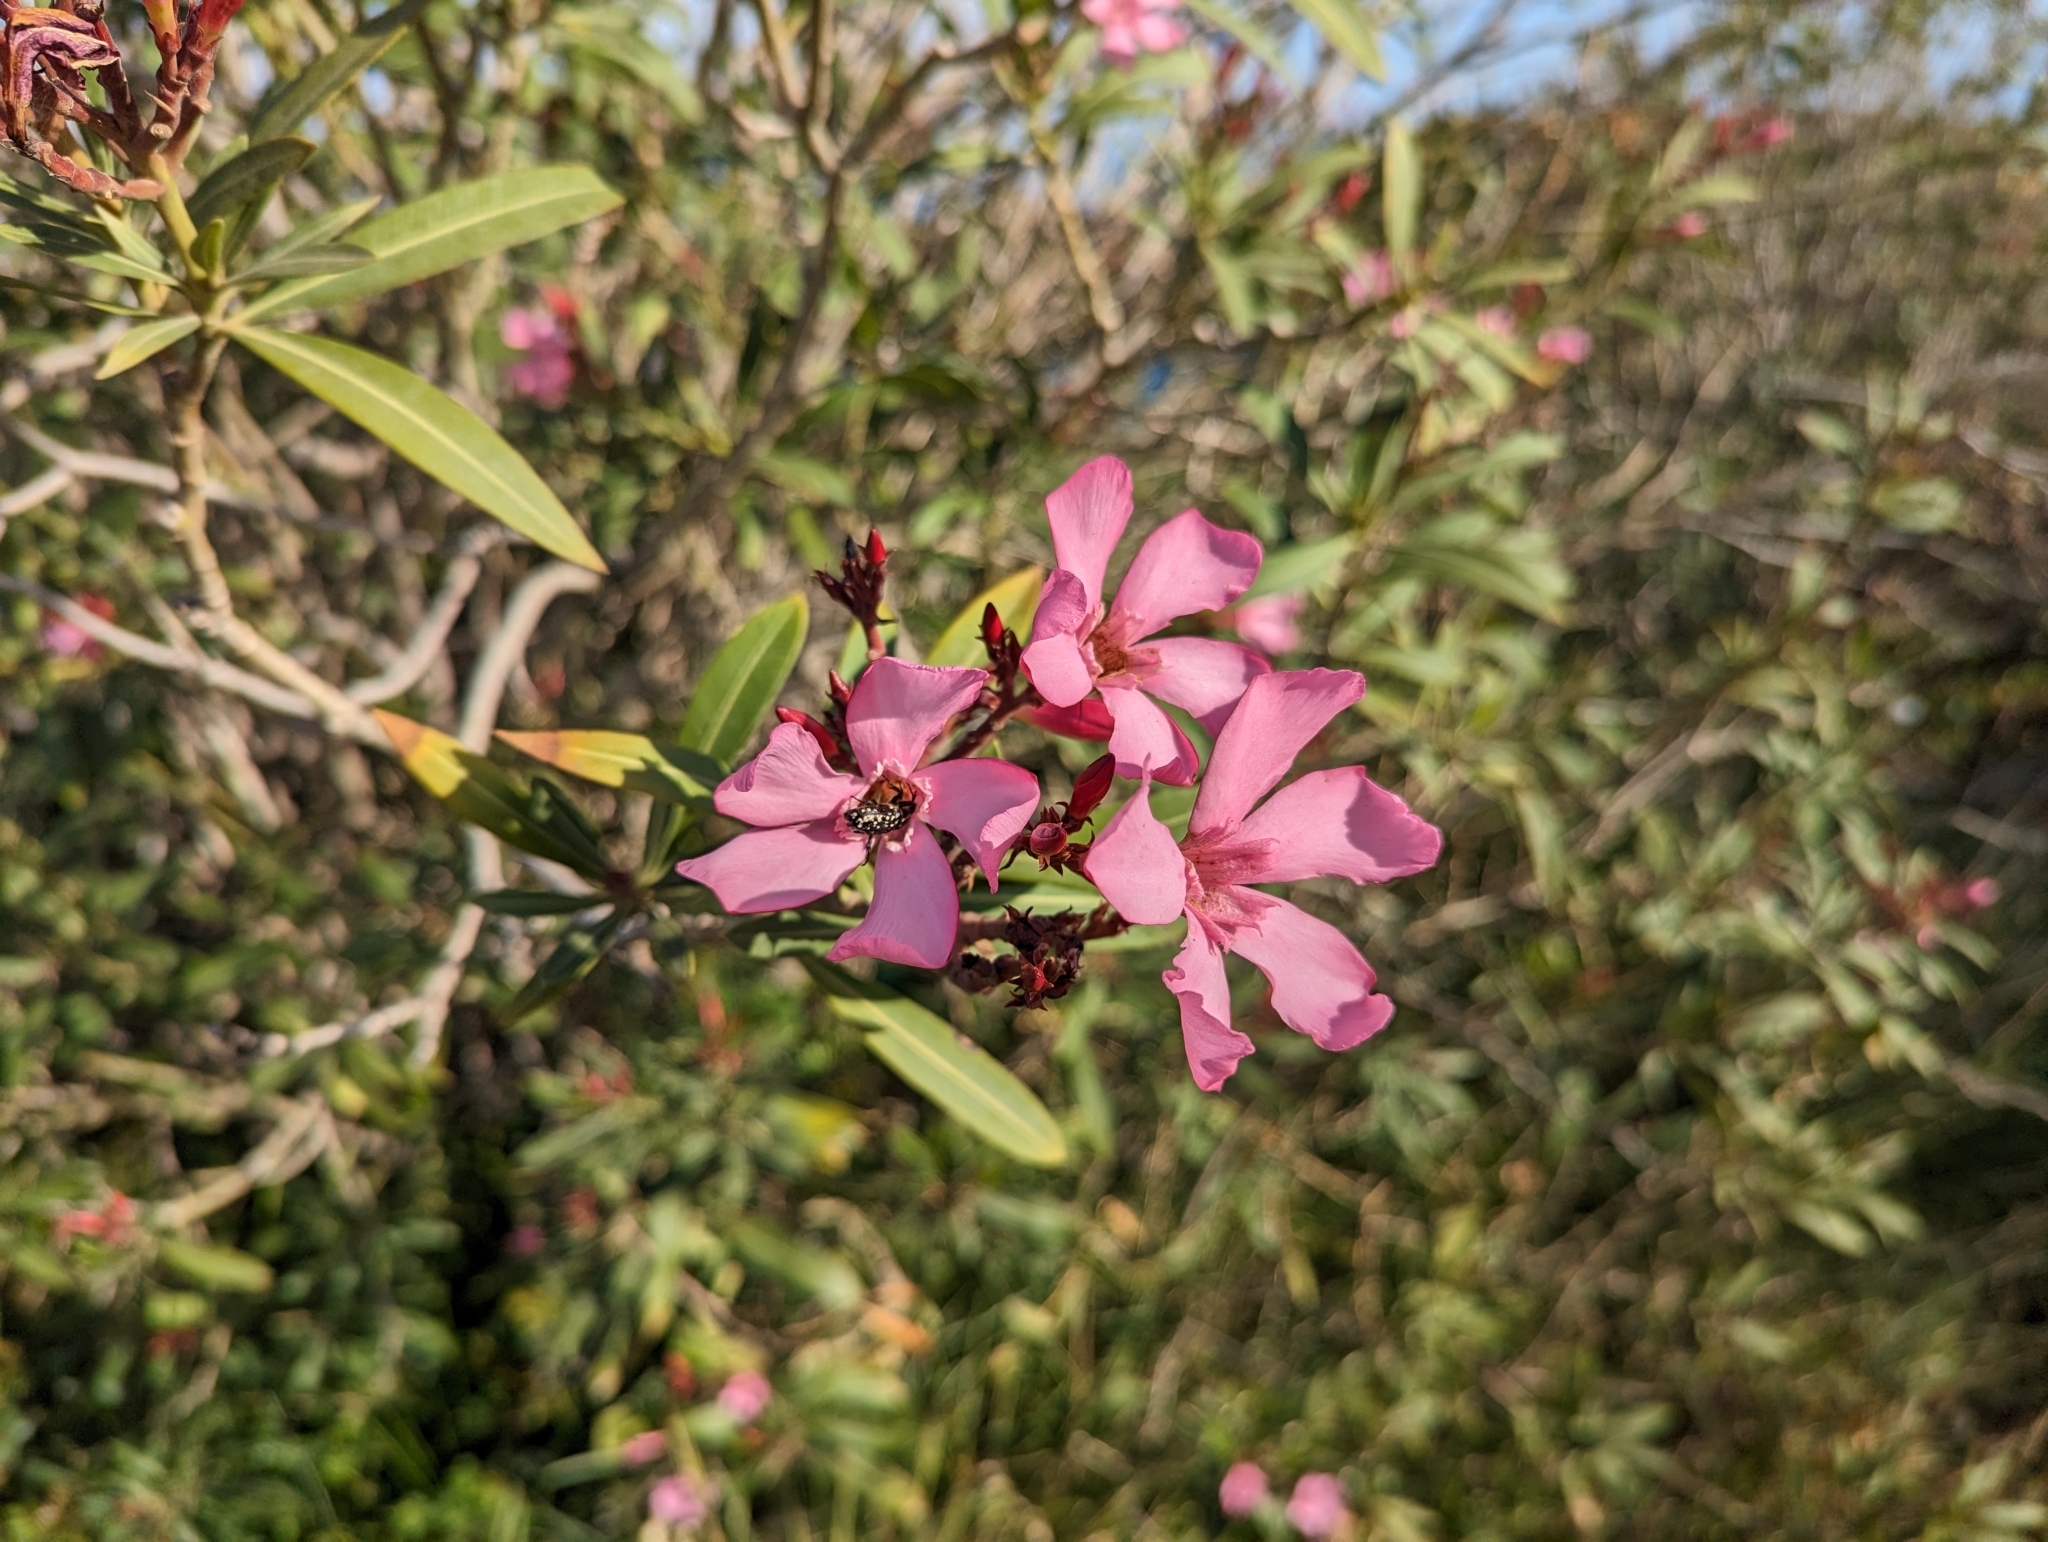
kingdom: Plantae
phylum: Tracheophyta
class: Magnoliopsida
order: Gentianales
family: Apocynaceae
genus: Nerium
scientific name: Nerium oleander
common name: Oleander
